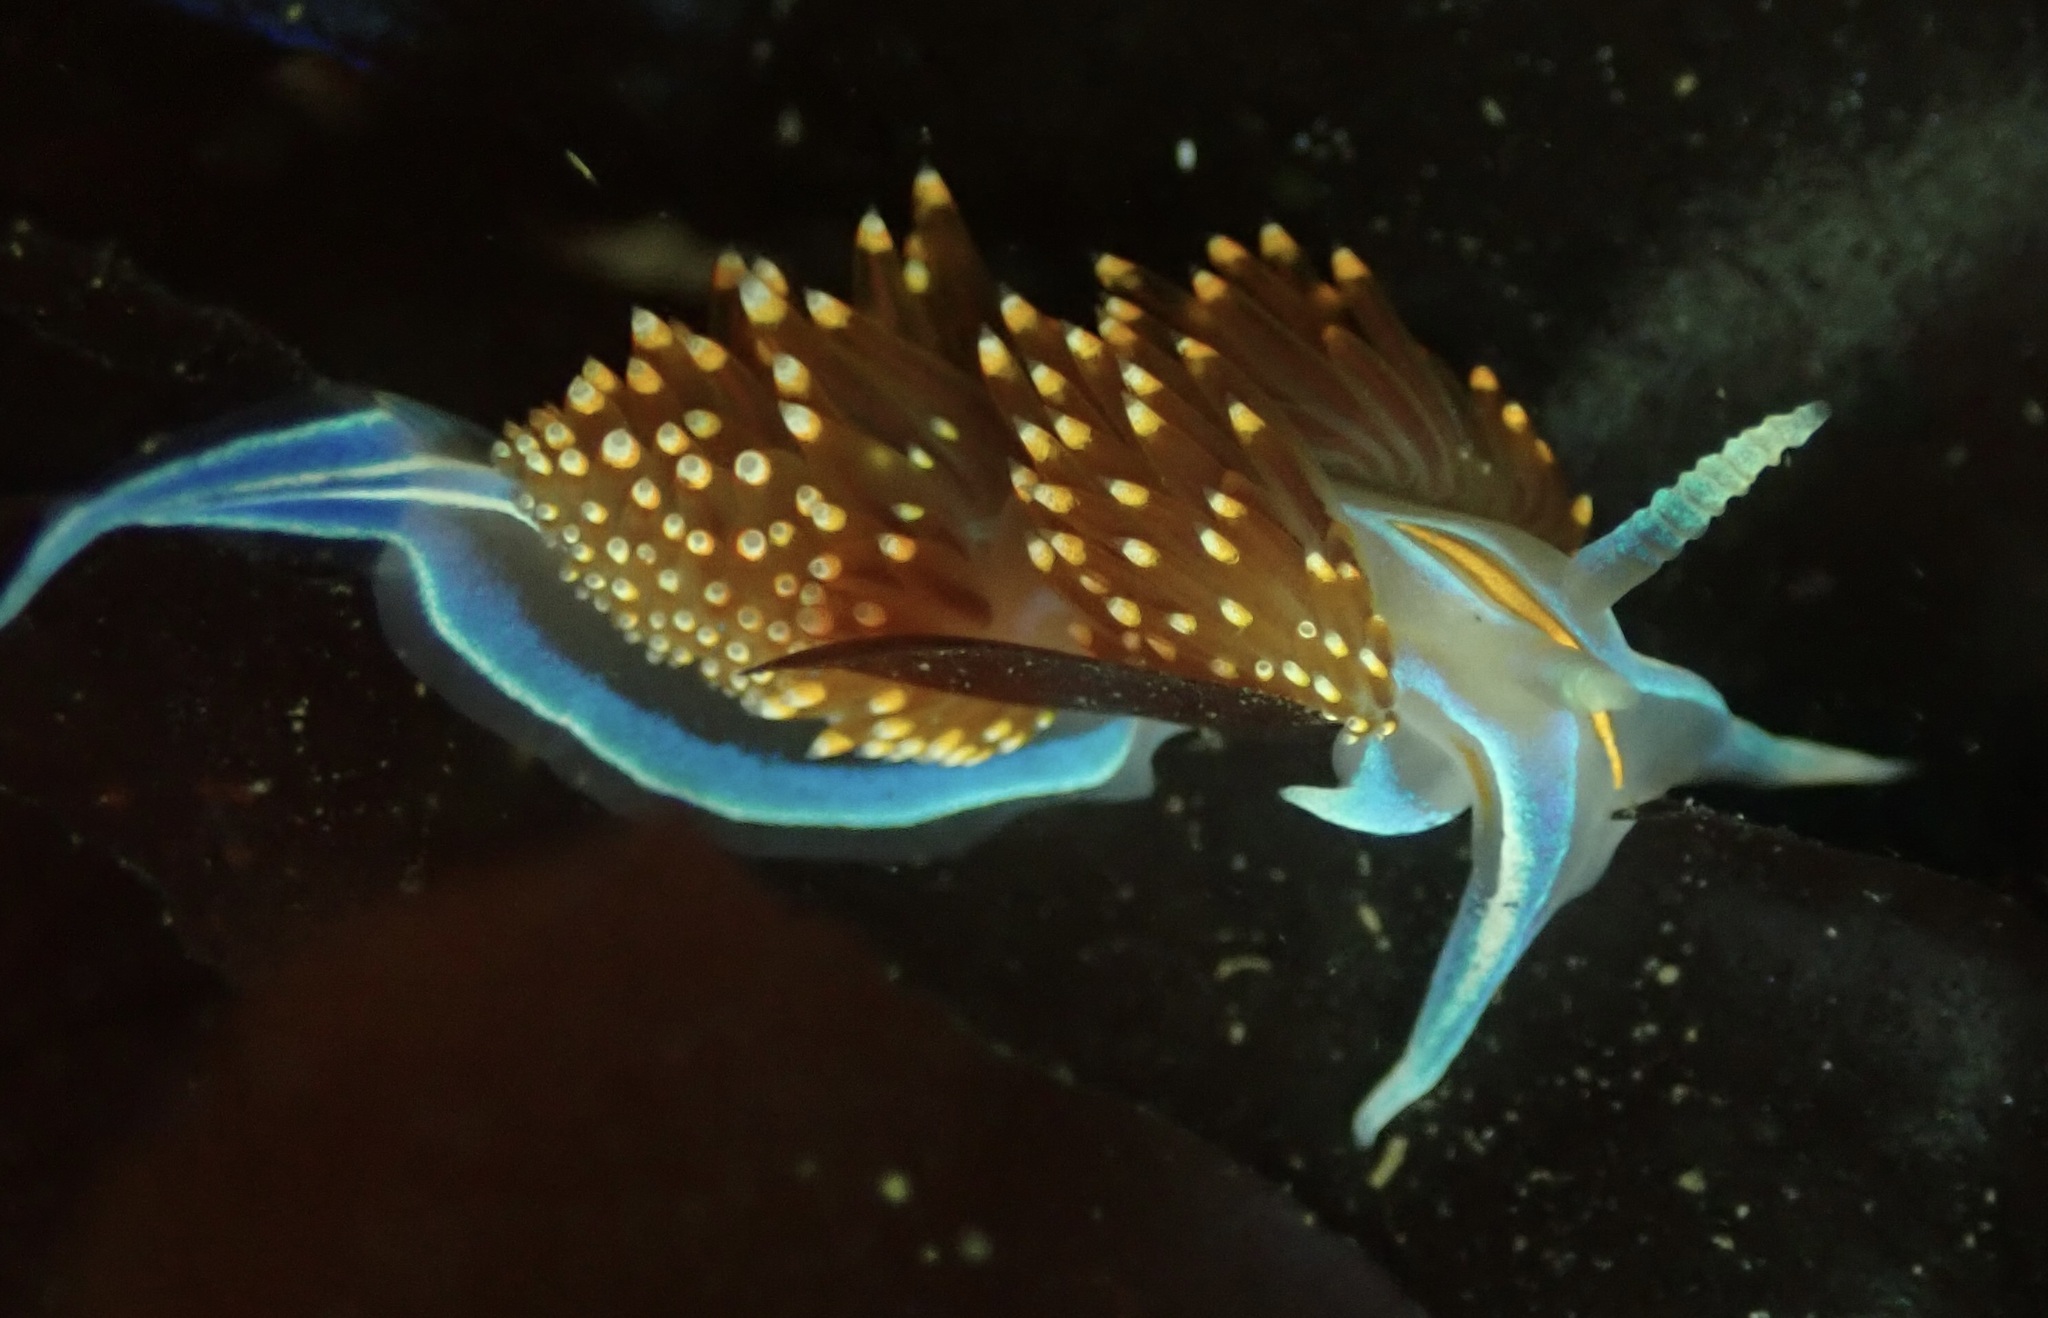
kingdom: Animalia
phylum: Mollusca
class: Gastropoda
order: Nudibranchia
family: Myrrhinidae
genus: Hermissenda
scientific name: Hermissenda opalescens
